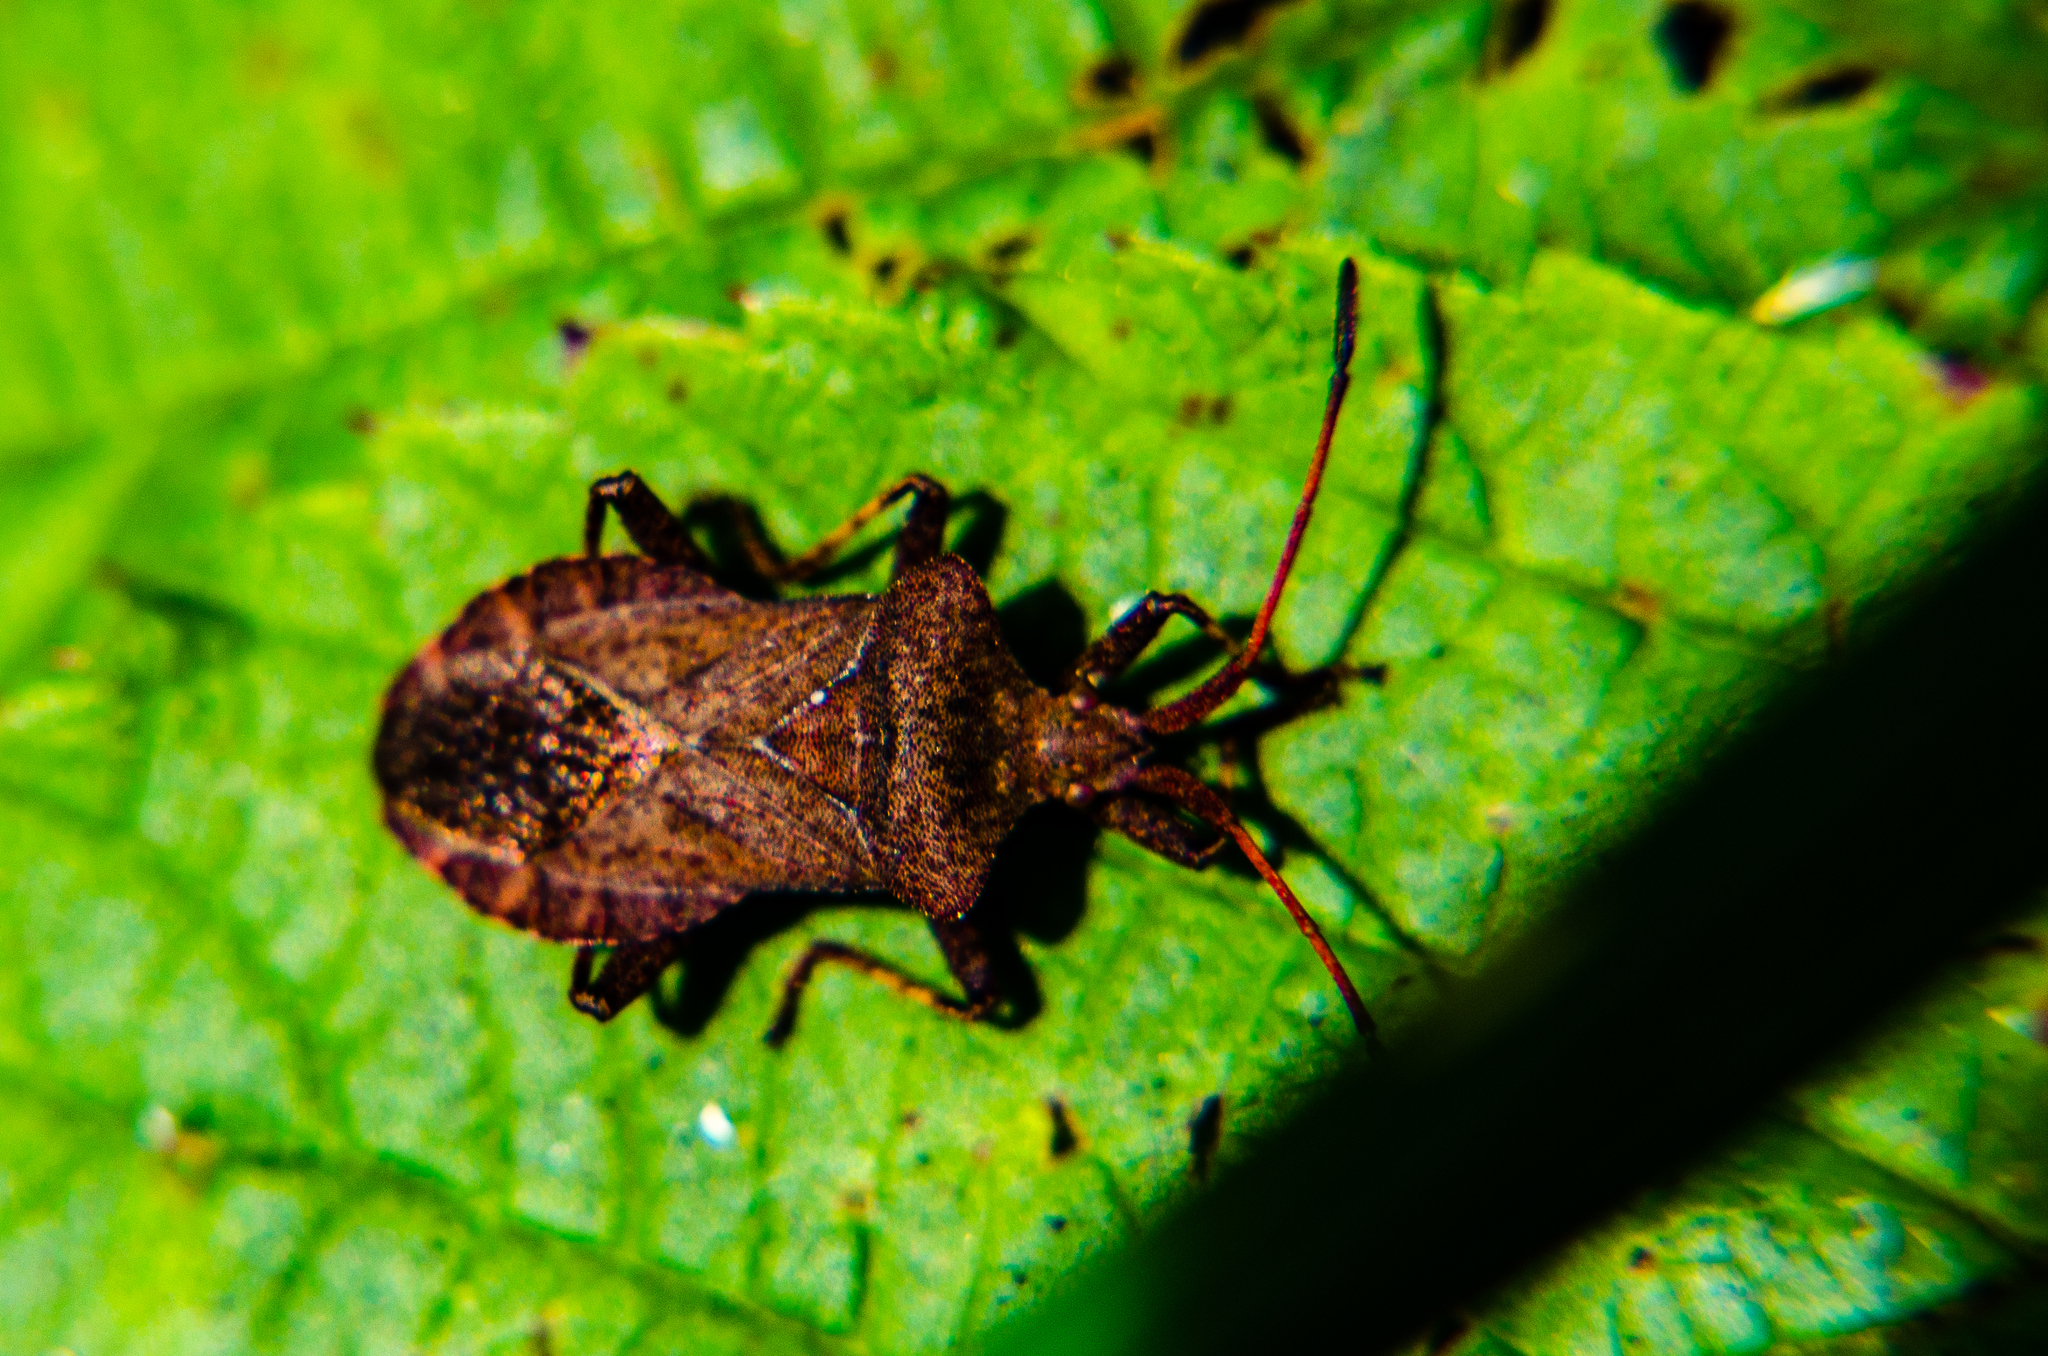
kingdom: Animalia
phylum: Arthropoda
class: Insecta
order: Hemiptera
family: Coreidae
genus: Coreus
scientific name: Coreus marginatus
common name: Dock bug
